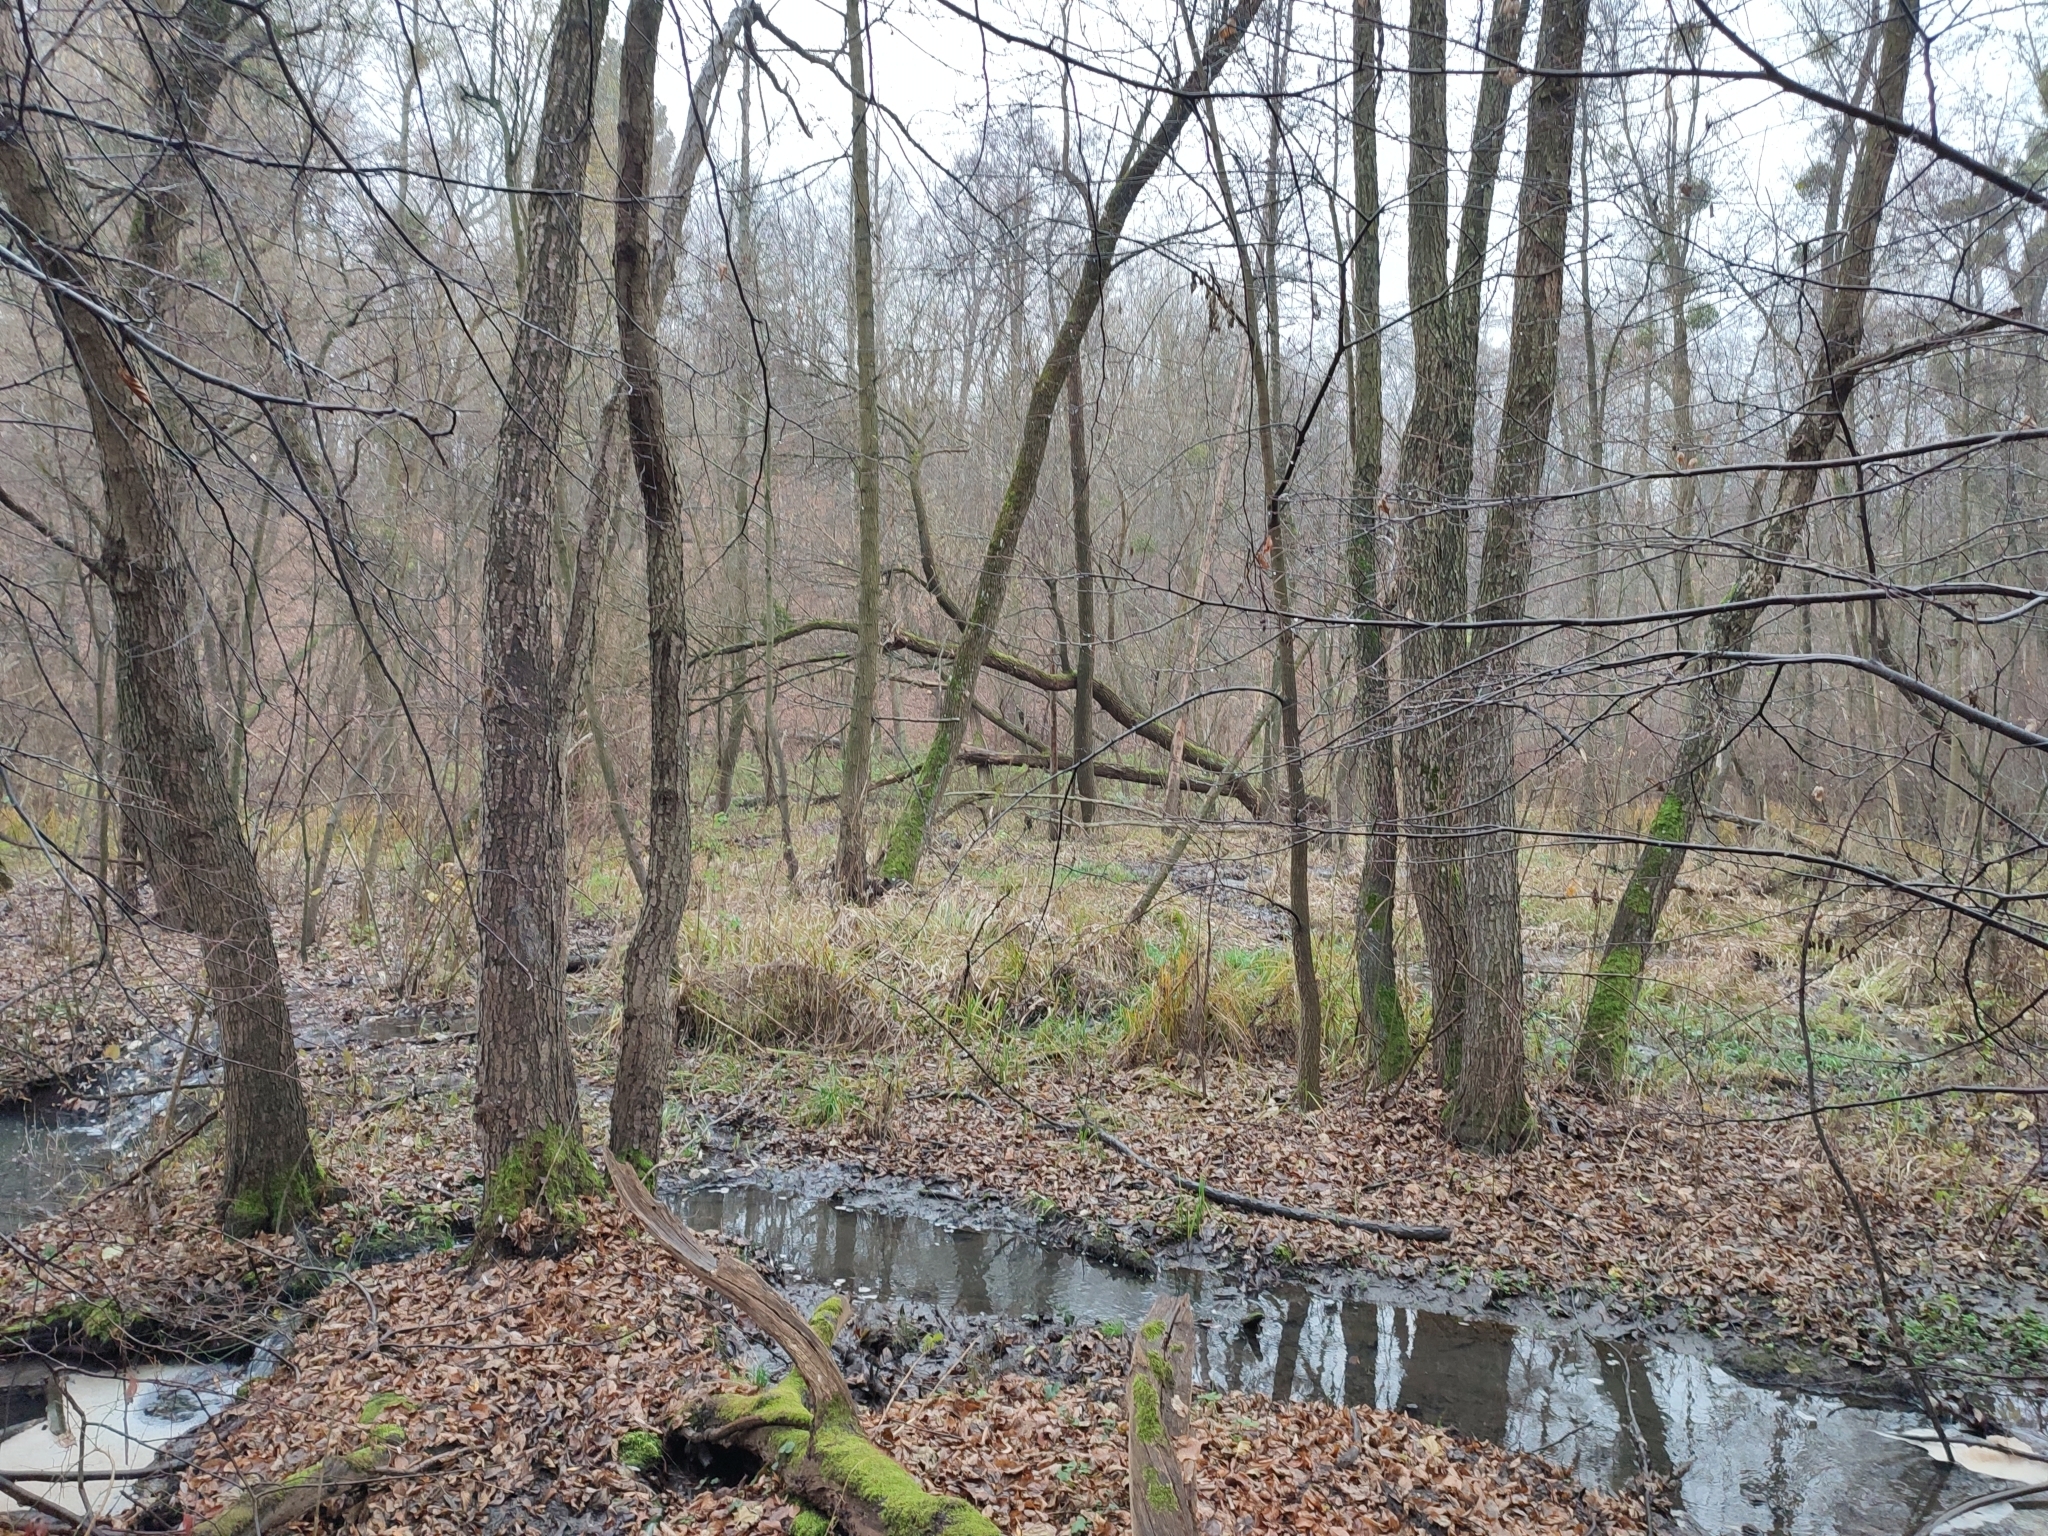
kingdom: Plantae
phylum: Tracheophyta
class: Magnoliopsida
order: Fagales
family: Betulaceae
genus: Alnus
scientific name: Alnus glutinosa
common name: Black alder
